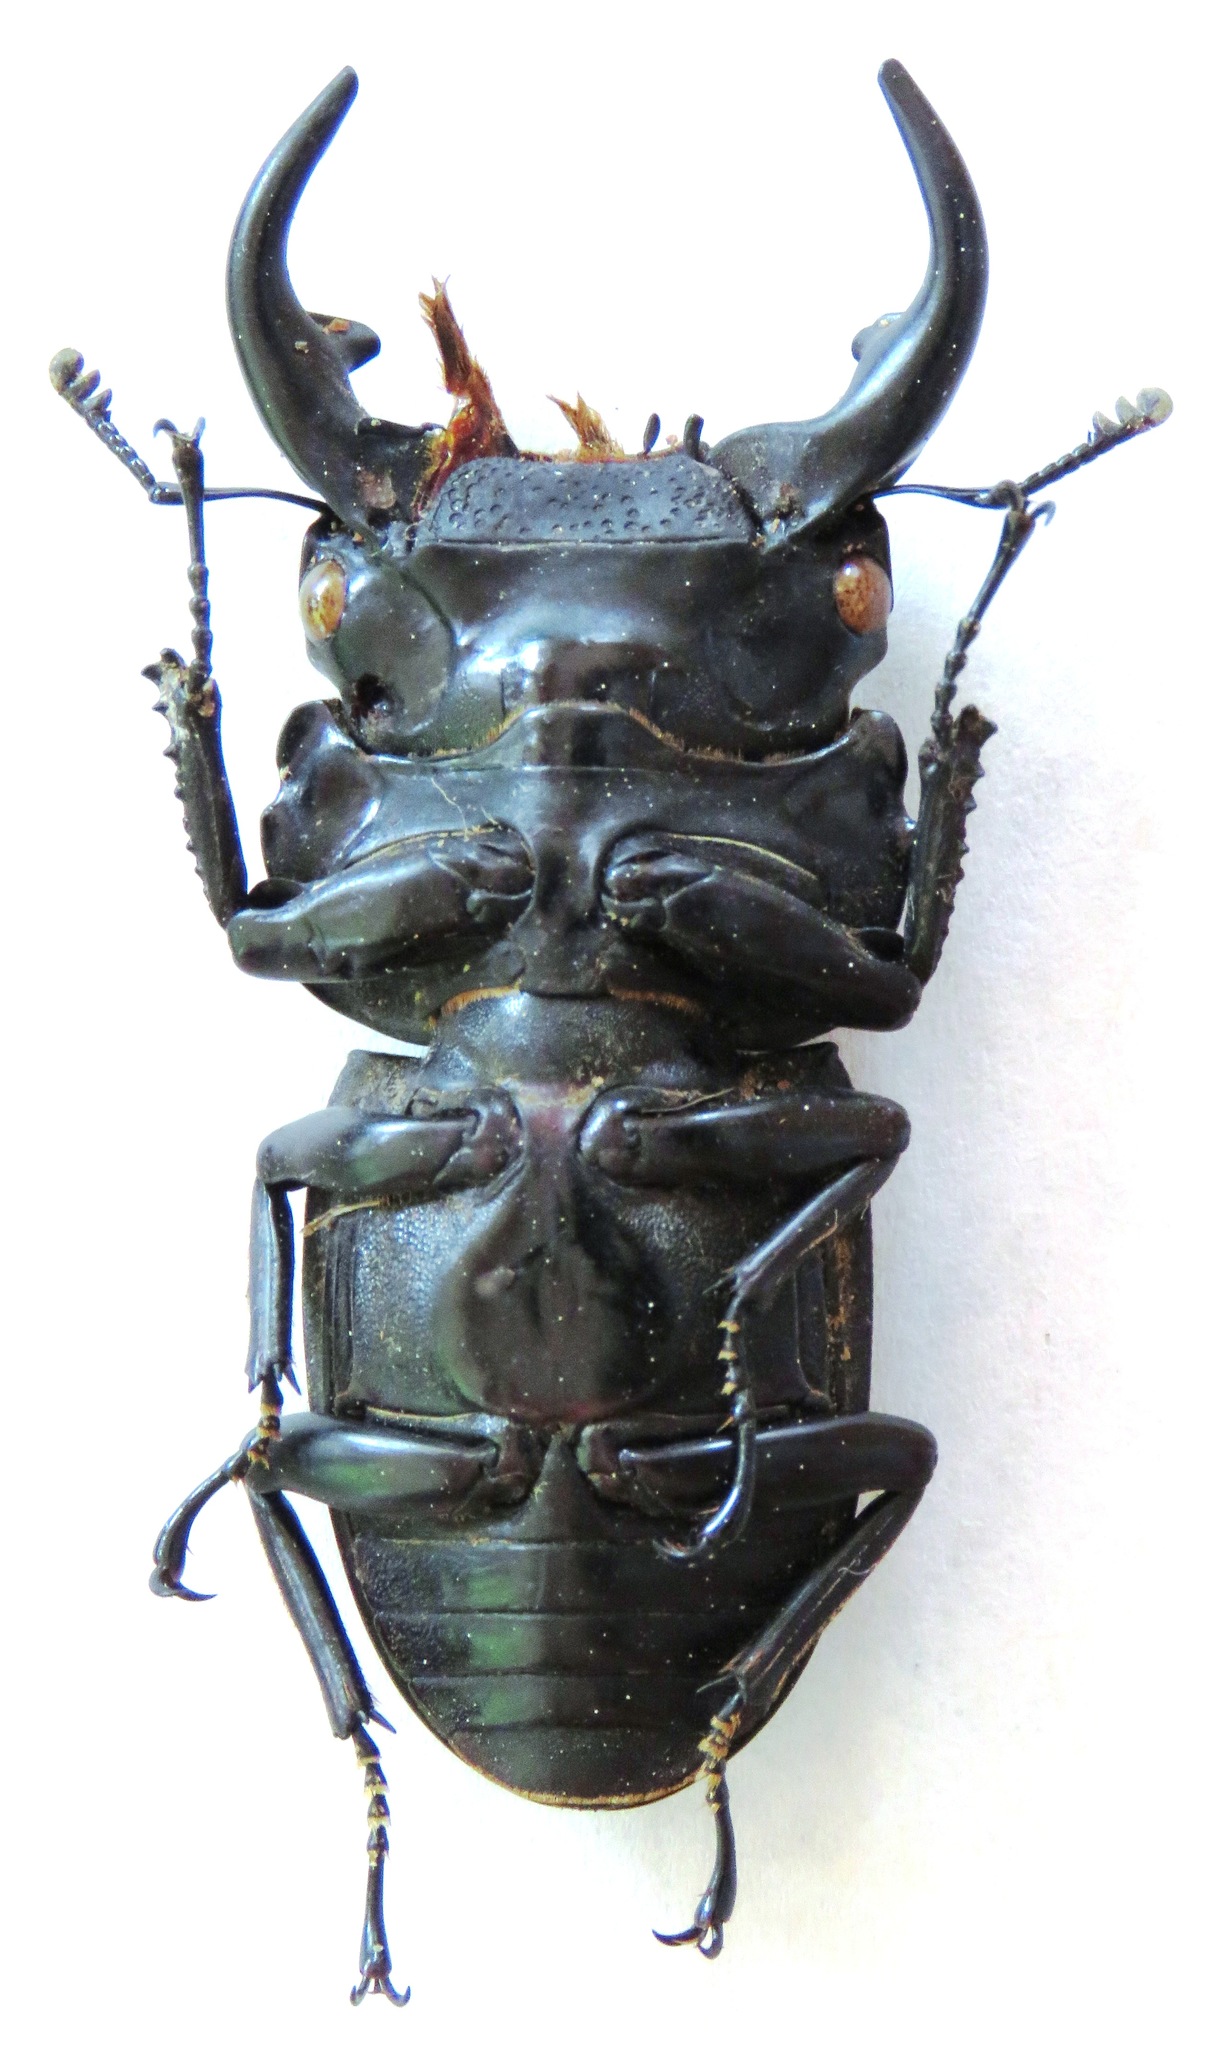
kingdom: Animalia
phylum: Arthropoda
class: Insecta
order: Coleoptera
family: Lucanidae
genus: Dorcus
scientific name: Dorcus curvidens
